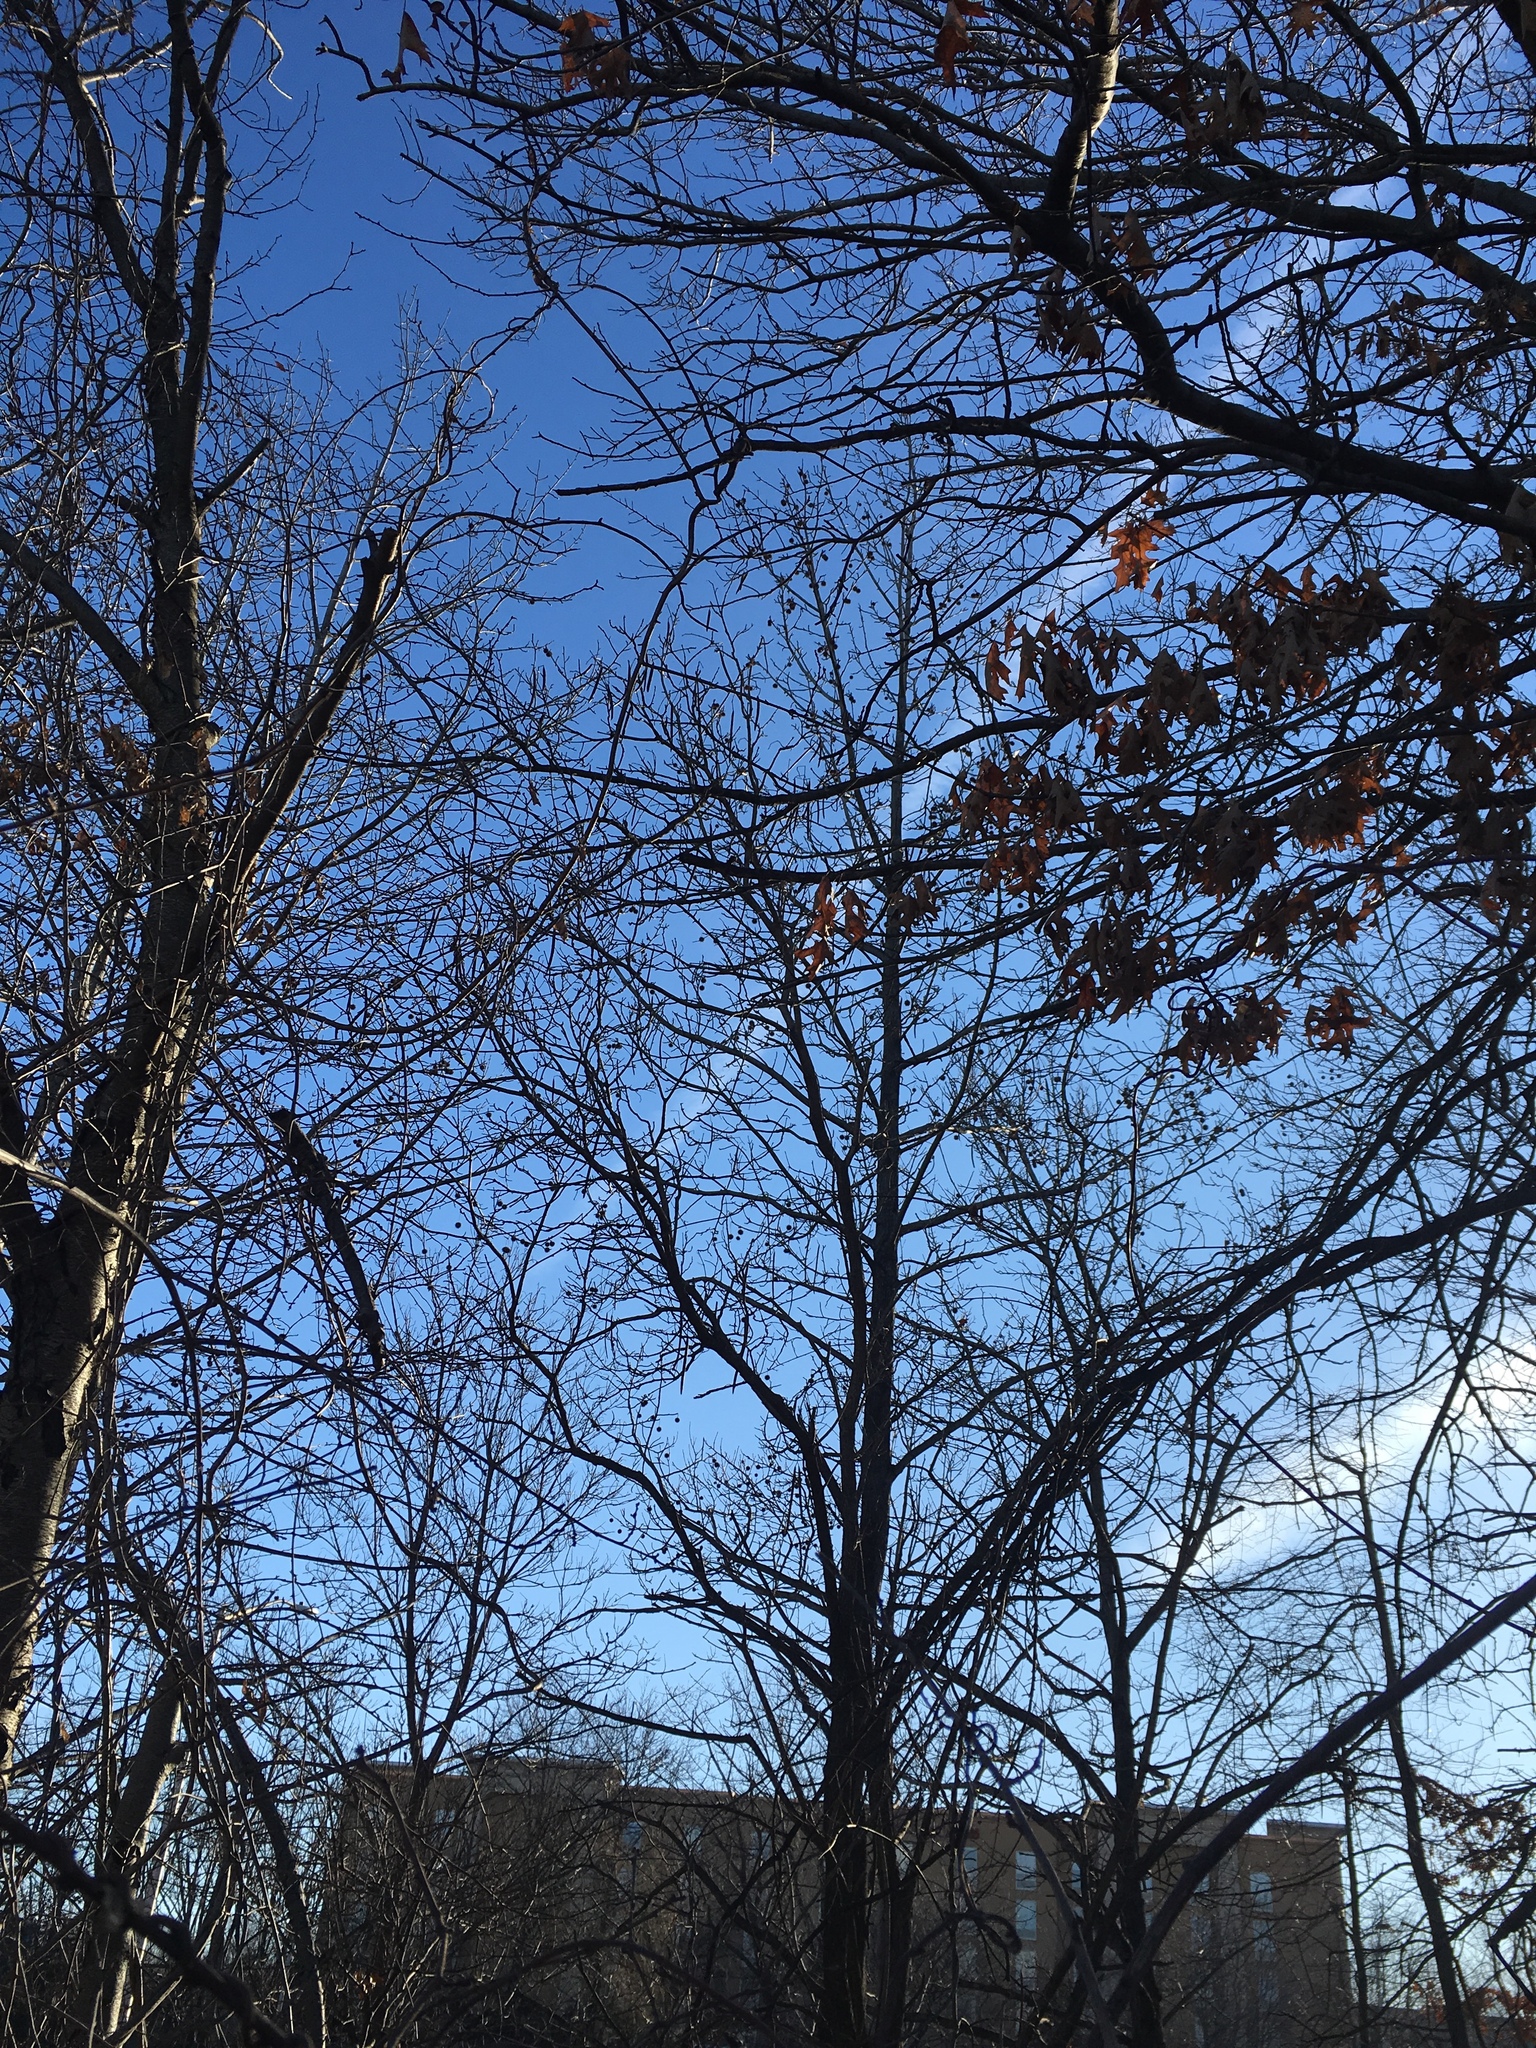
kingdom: Plantae
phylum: Tracheophyta
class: Magnoliopsida
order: Saxifragales
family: Altingiaceae
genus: Liquidambar
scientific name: Liquidambar styraciflua
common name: Sweet gum
